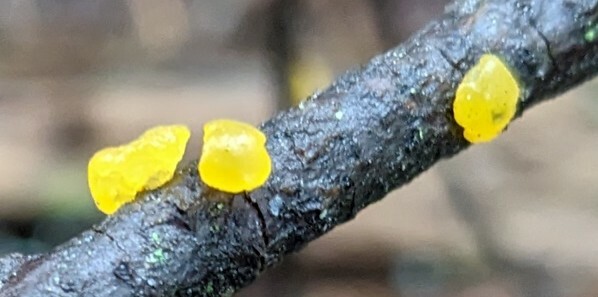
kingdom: Fungi
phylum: Basidiomycota
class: Tremellomycetes
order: Tremellales
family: Tremellaceae
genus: Tremella
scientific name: Tremella mesenterica
